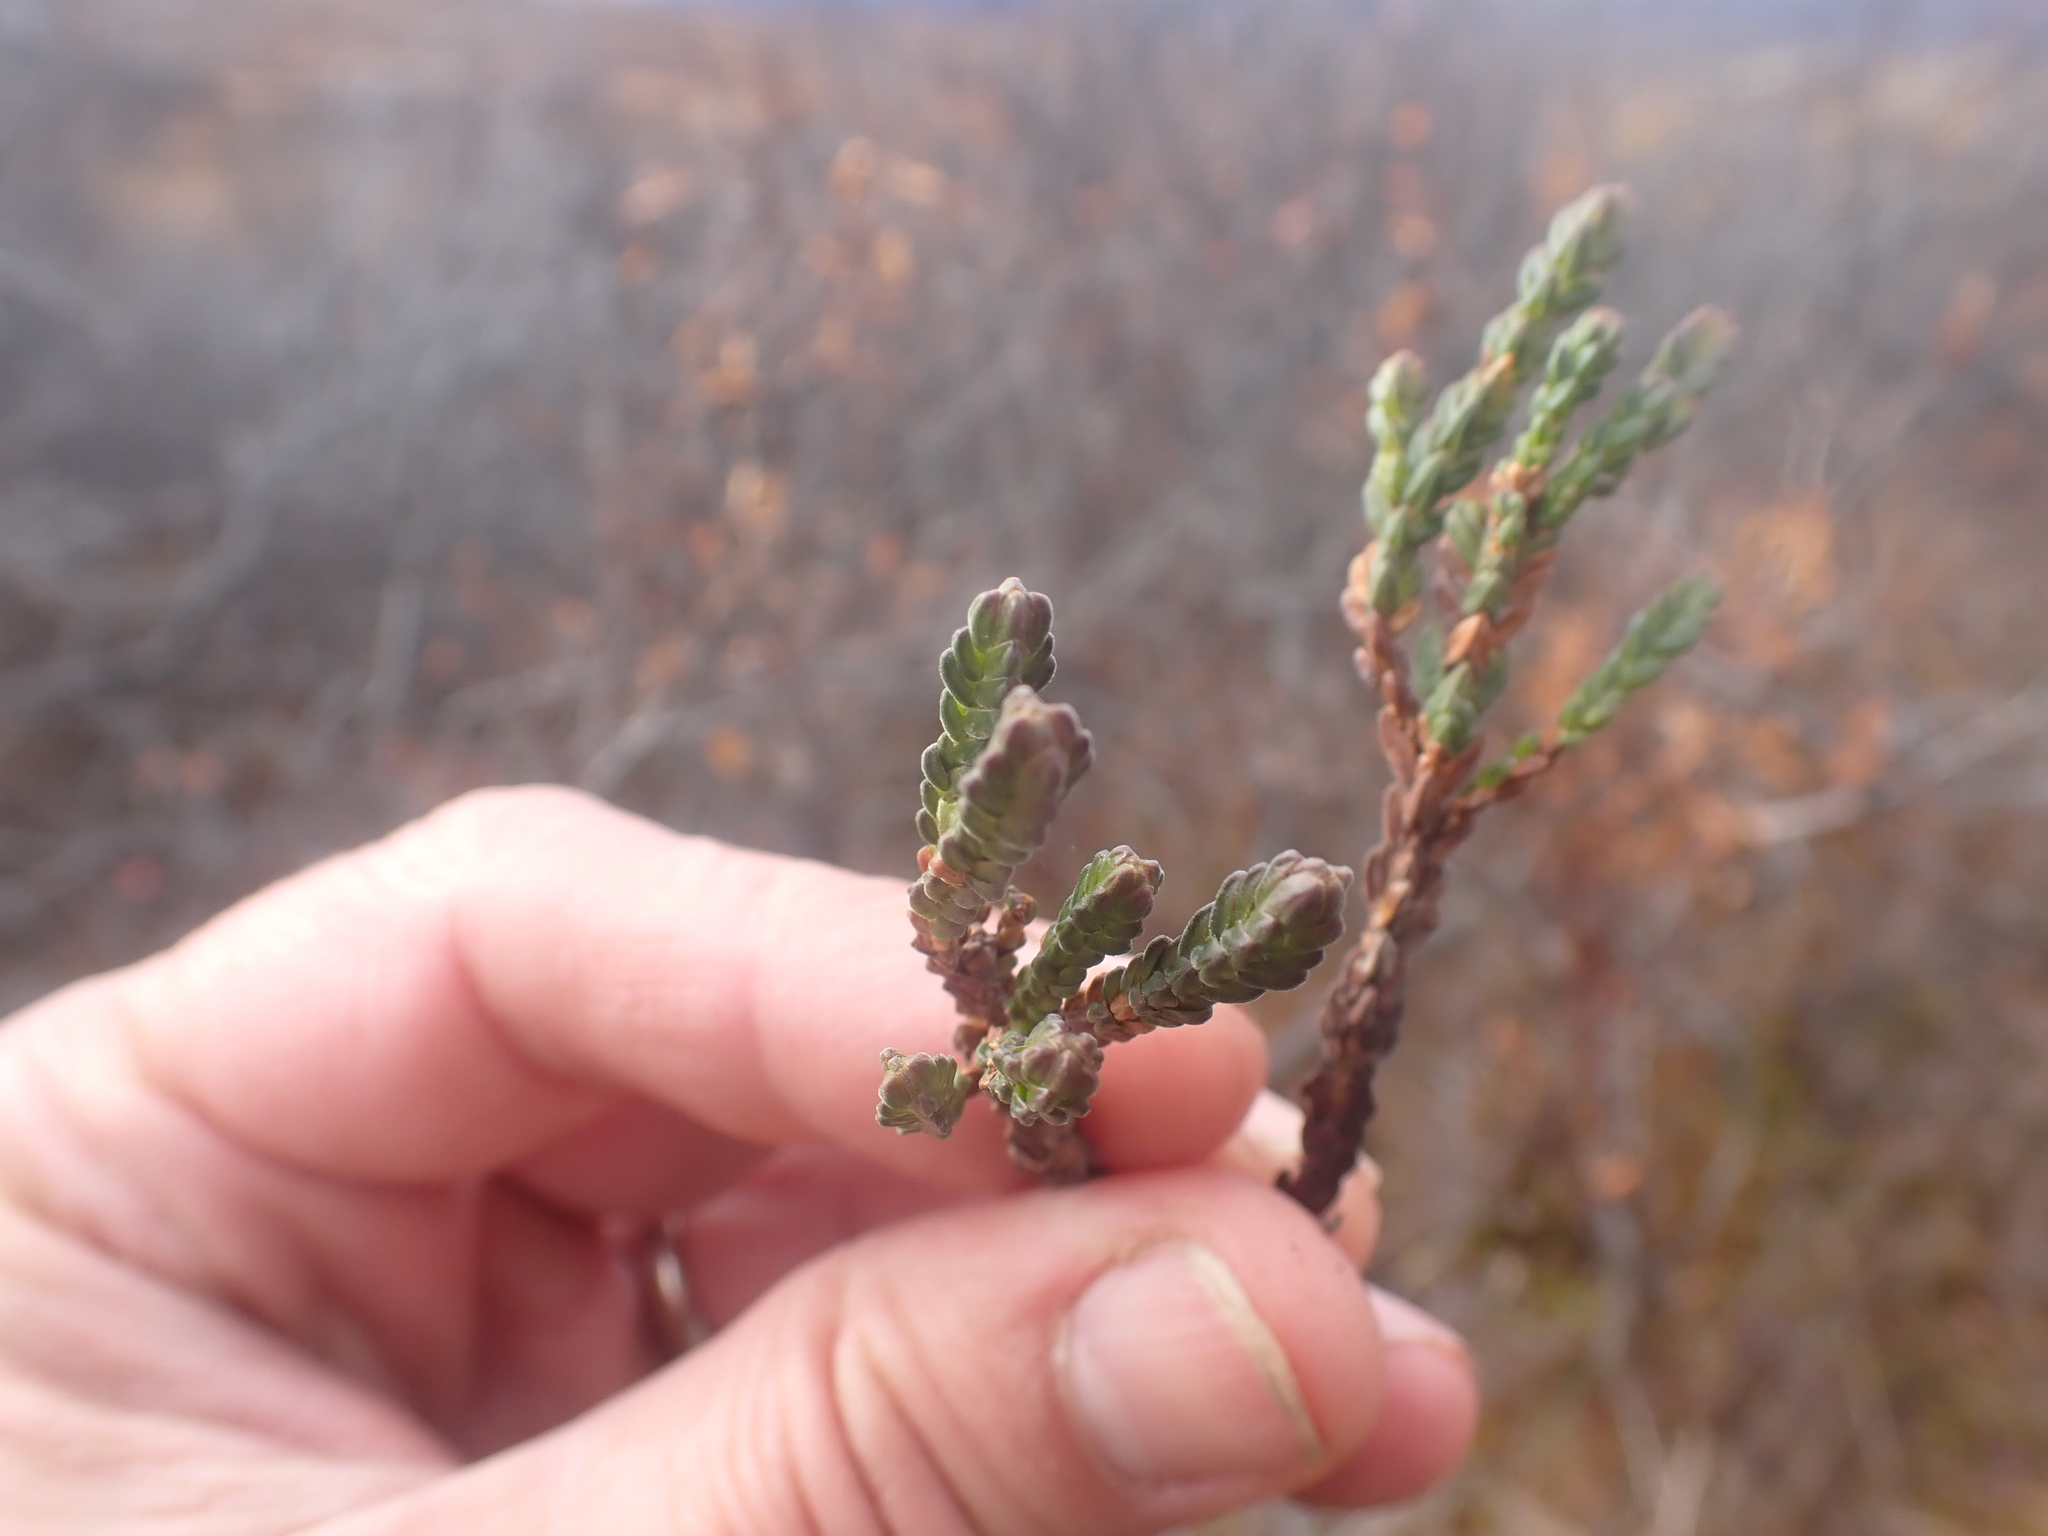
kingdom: Plantae
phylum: Tracheophyta
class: Magnoliopsida
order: Ericales
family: Ericaceae
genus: Cassiope
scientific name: Cassiope tetragona
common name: Arctic bell heather
